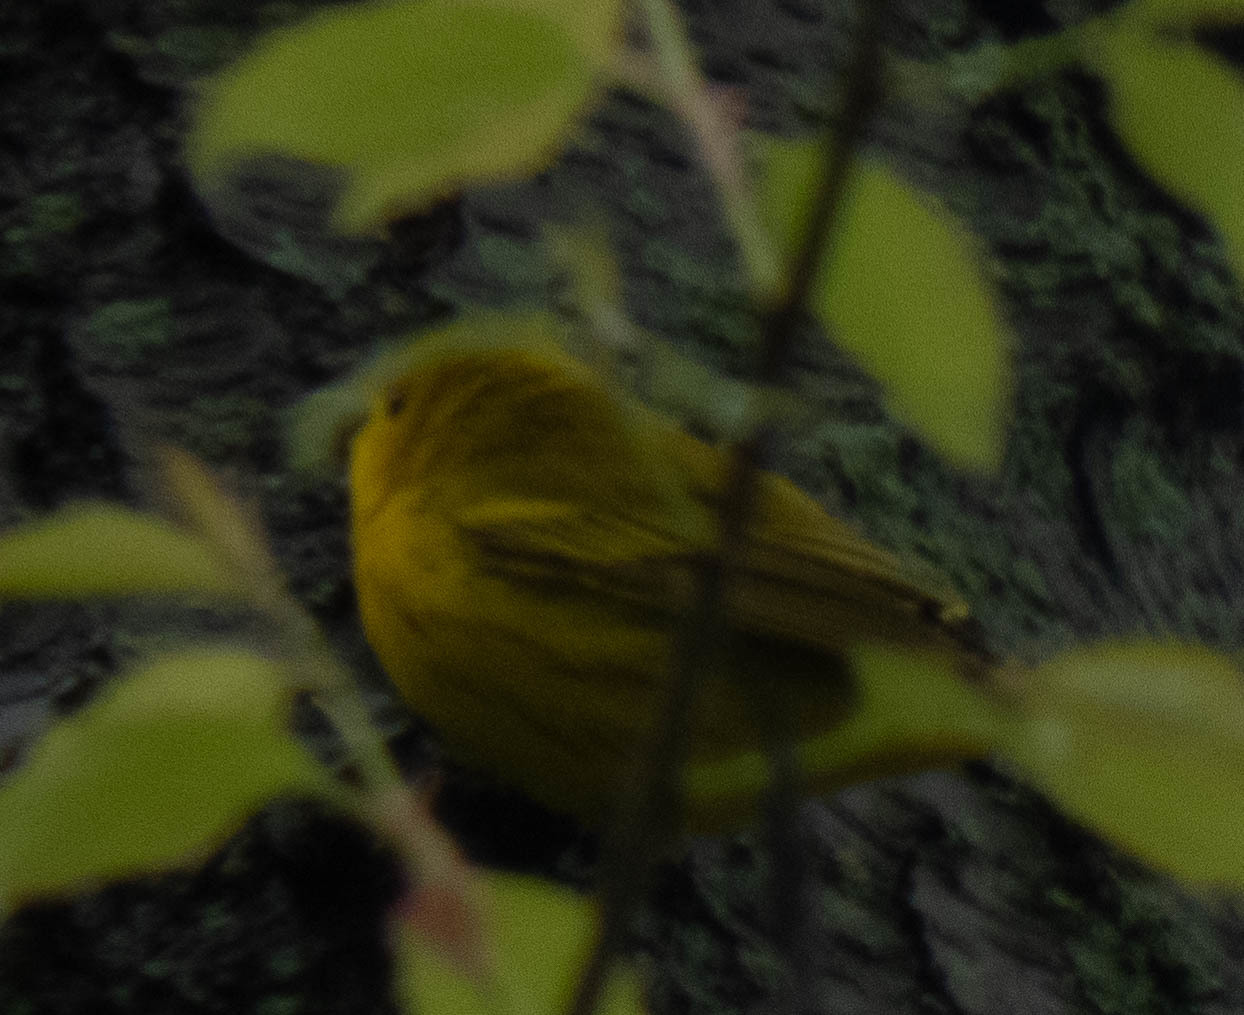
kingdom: Animalia
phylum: Chordata
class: Aves
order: Passeriformes
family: Parulidae
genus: Setophaga
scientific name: Setophaga petechia
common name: Yellow warbler
